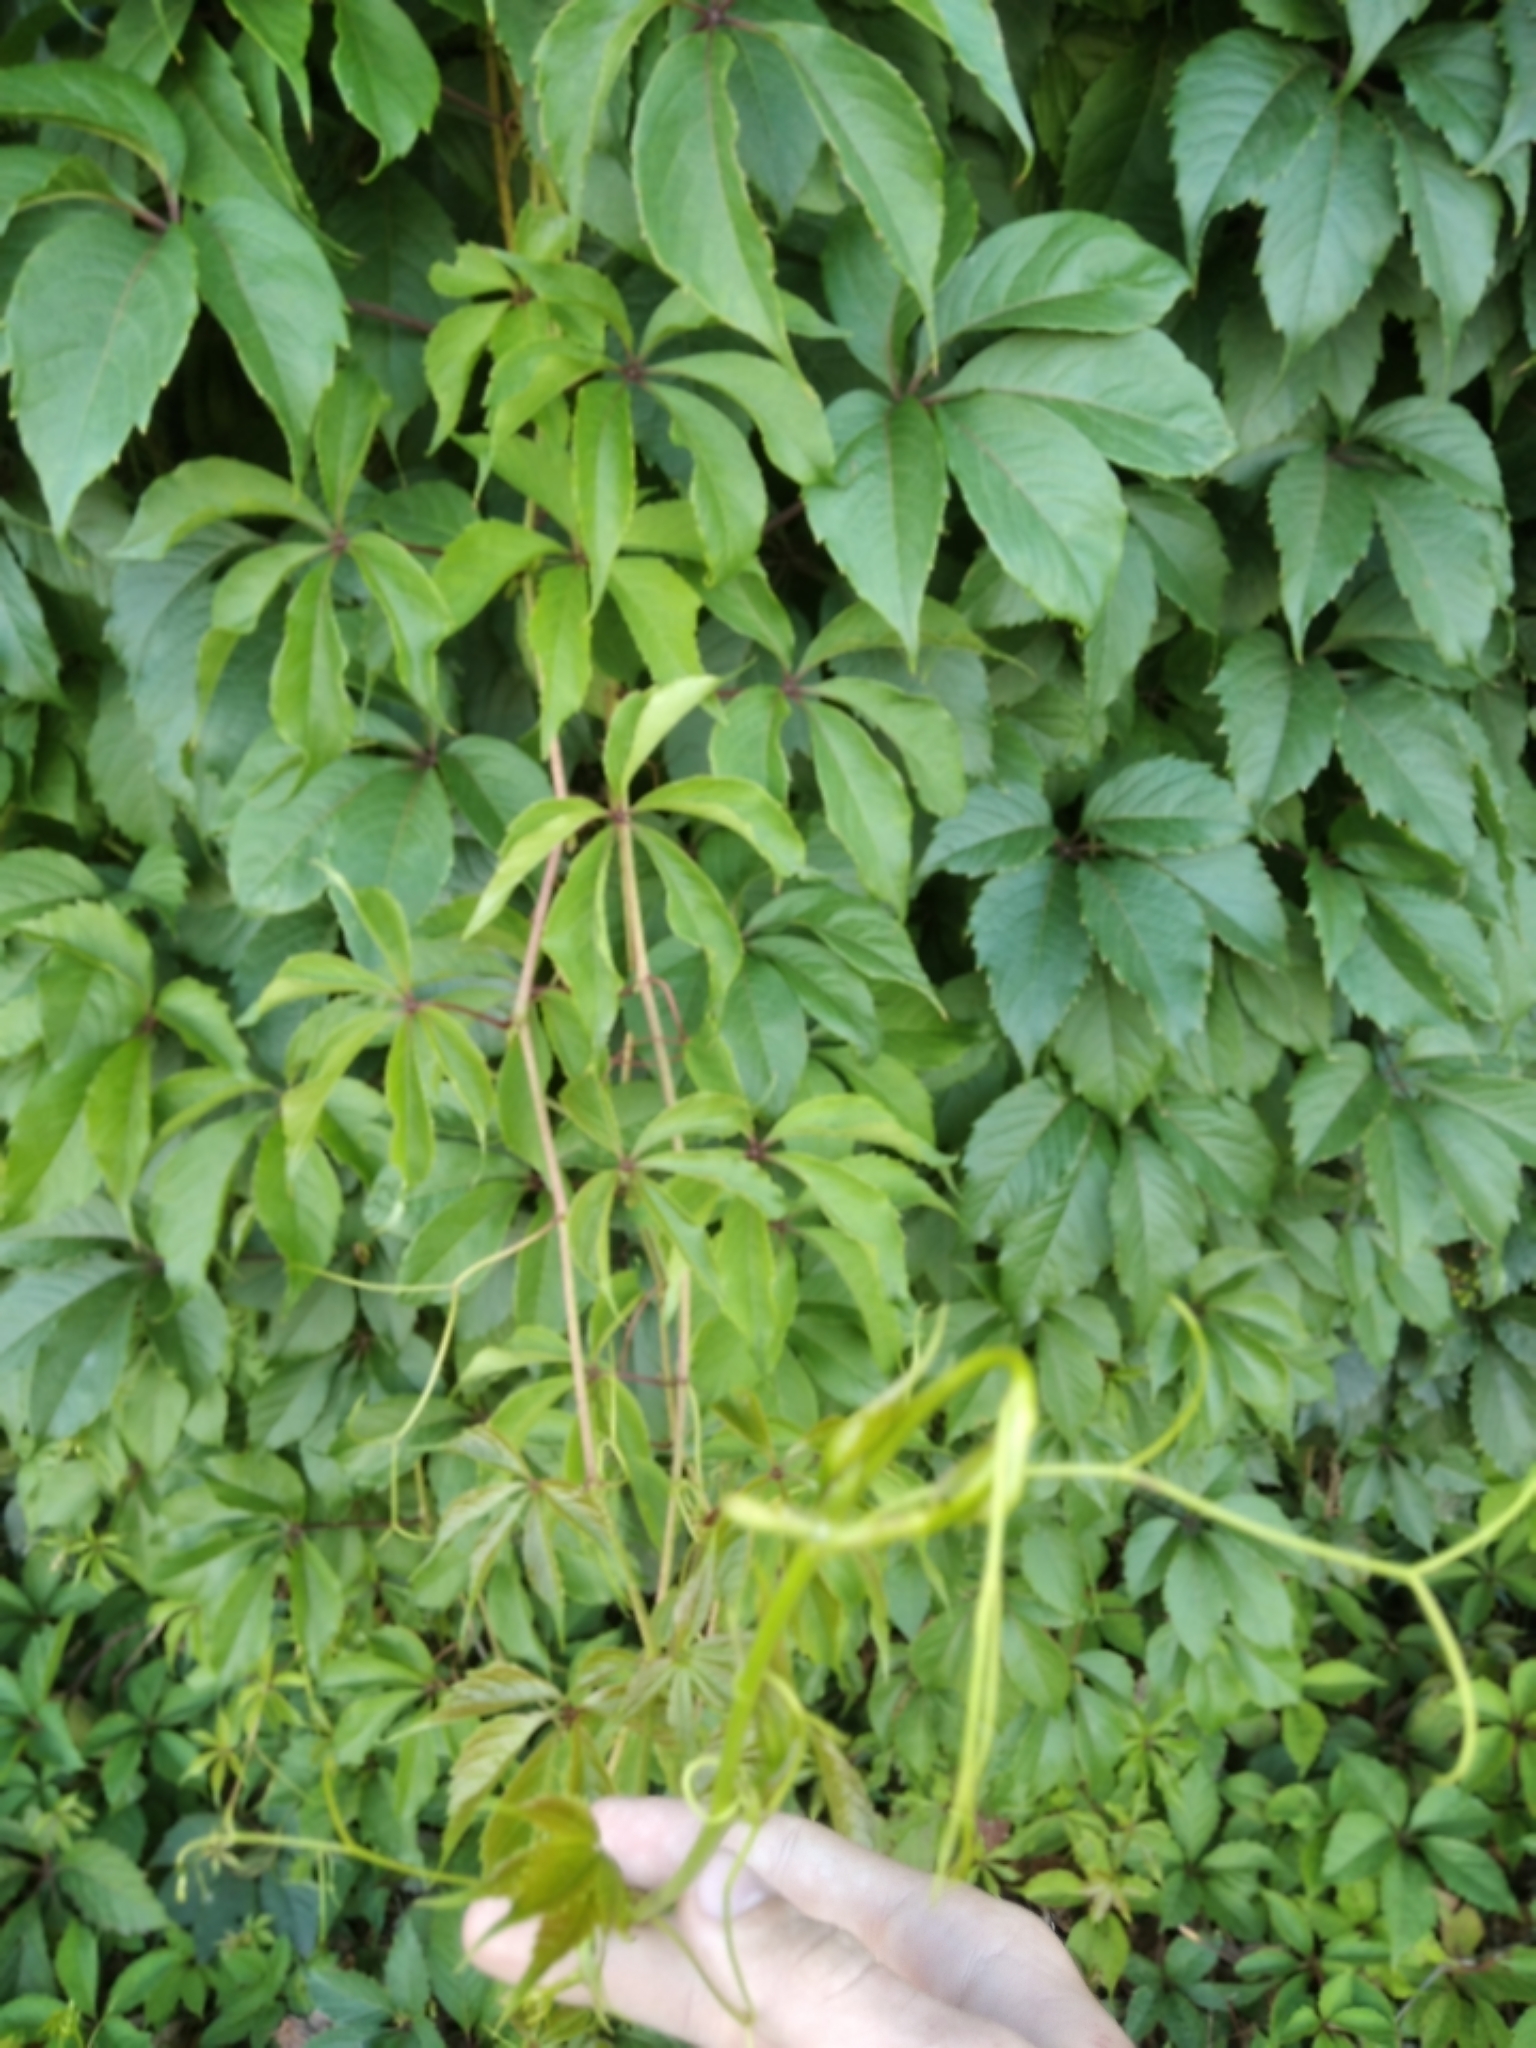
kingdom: Plantae
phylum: Tracheophyta
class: Magnoliopsida
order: Vitales
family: Vitaceae
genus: Parthenocissus
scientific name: Parthenocissus inserta
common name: False virginia-creeper
